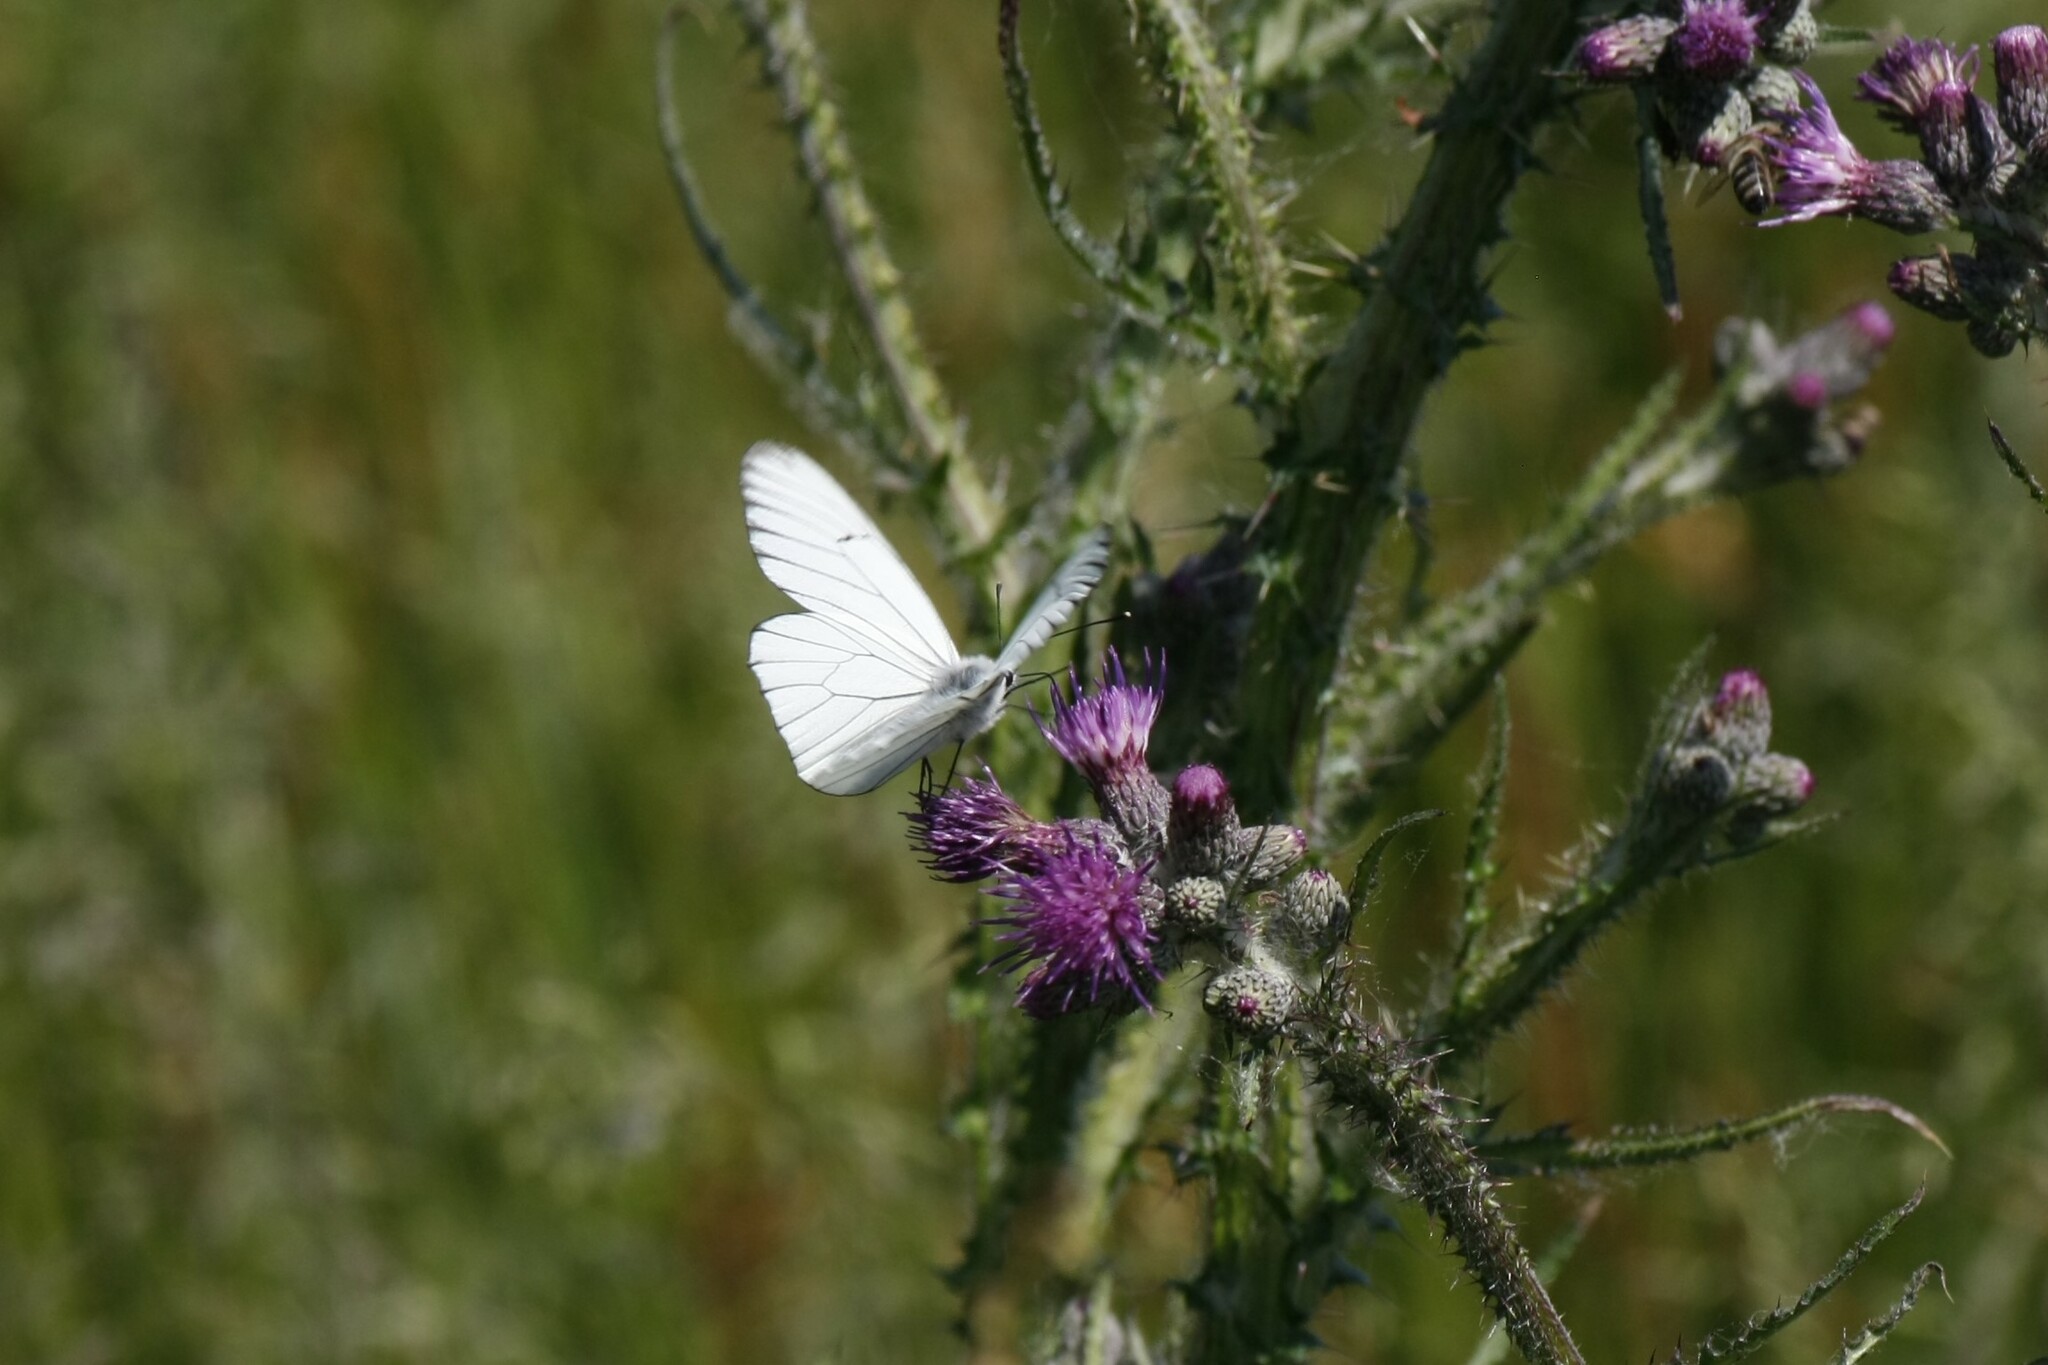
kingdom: Animalia
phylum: Arthropoda
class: Insecta
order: Lepidoptera
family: Pieridae
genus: Aporia
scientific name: Aporia crataegi
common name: Black-veined white
